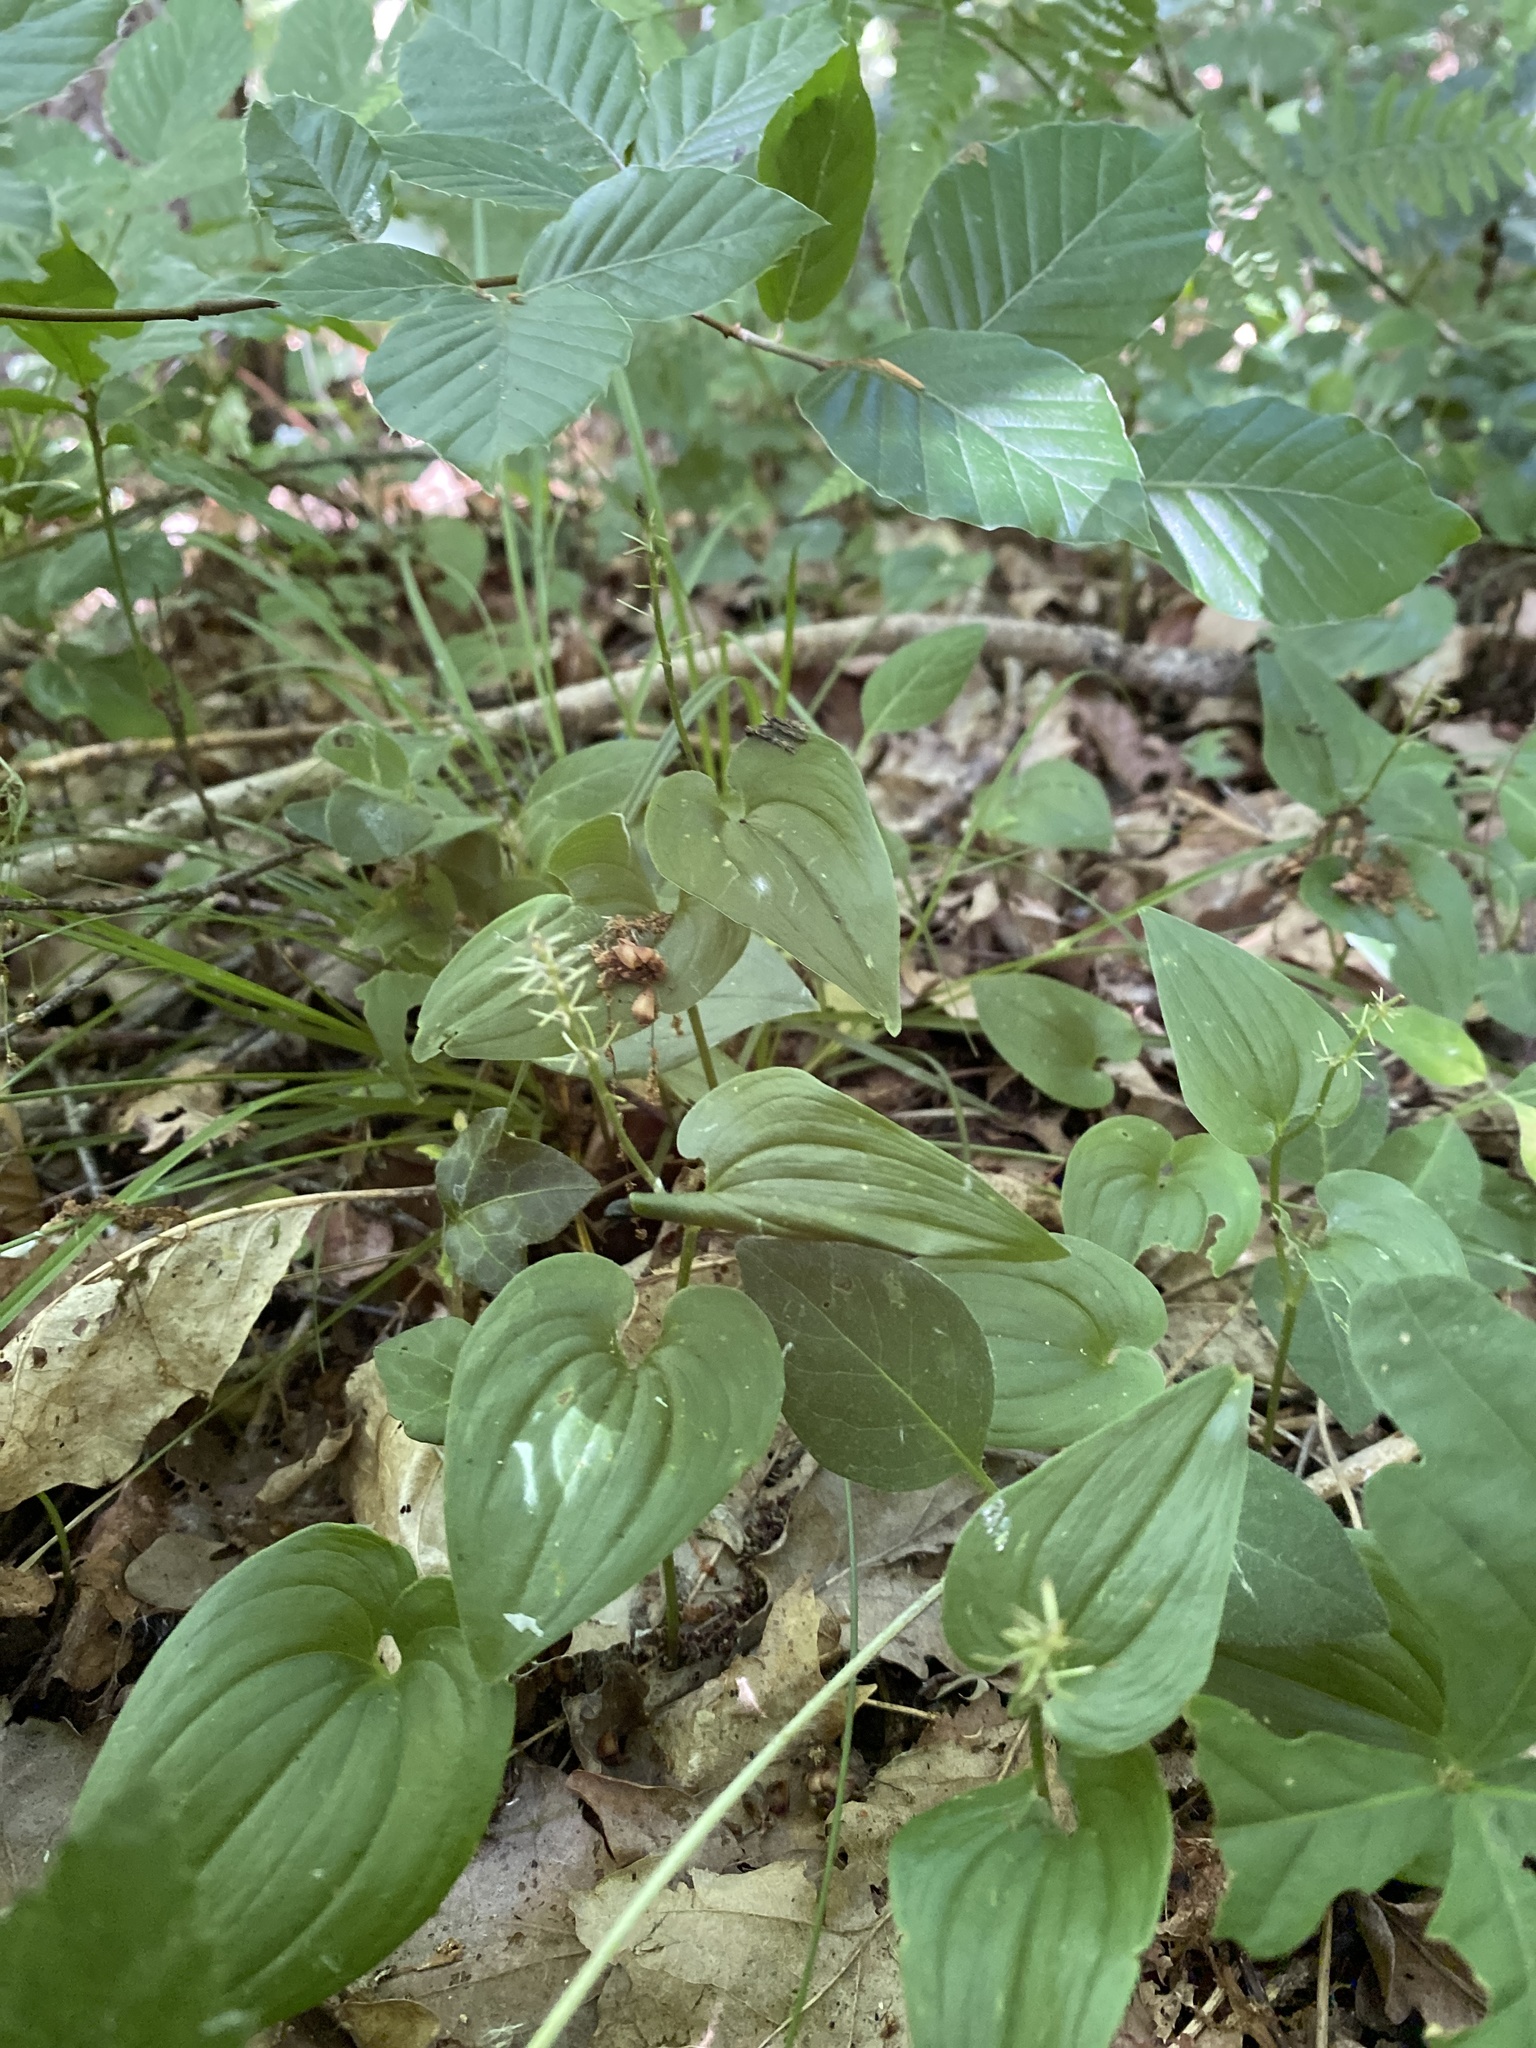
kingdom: Plantae
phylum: Tracheophyta
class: Liliopsida
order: Asparagales
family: Asparagaceae
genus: Maianthemum
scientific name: Maianthemum bifolium
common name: May lily
